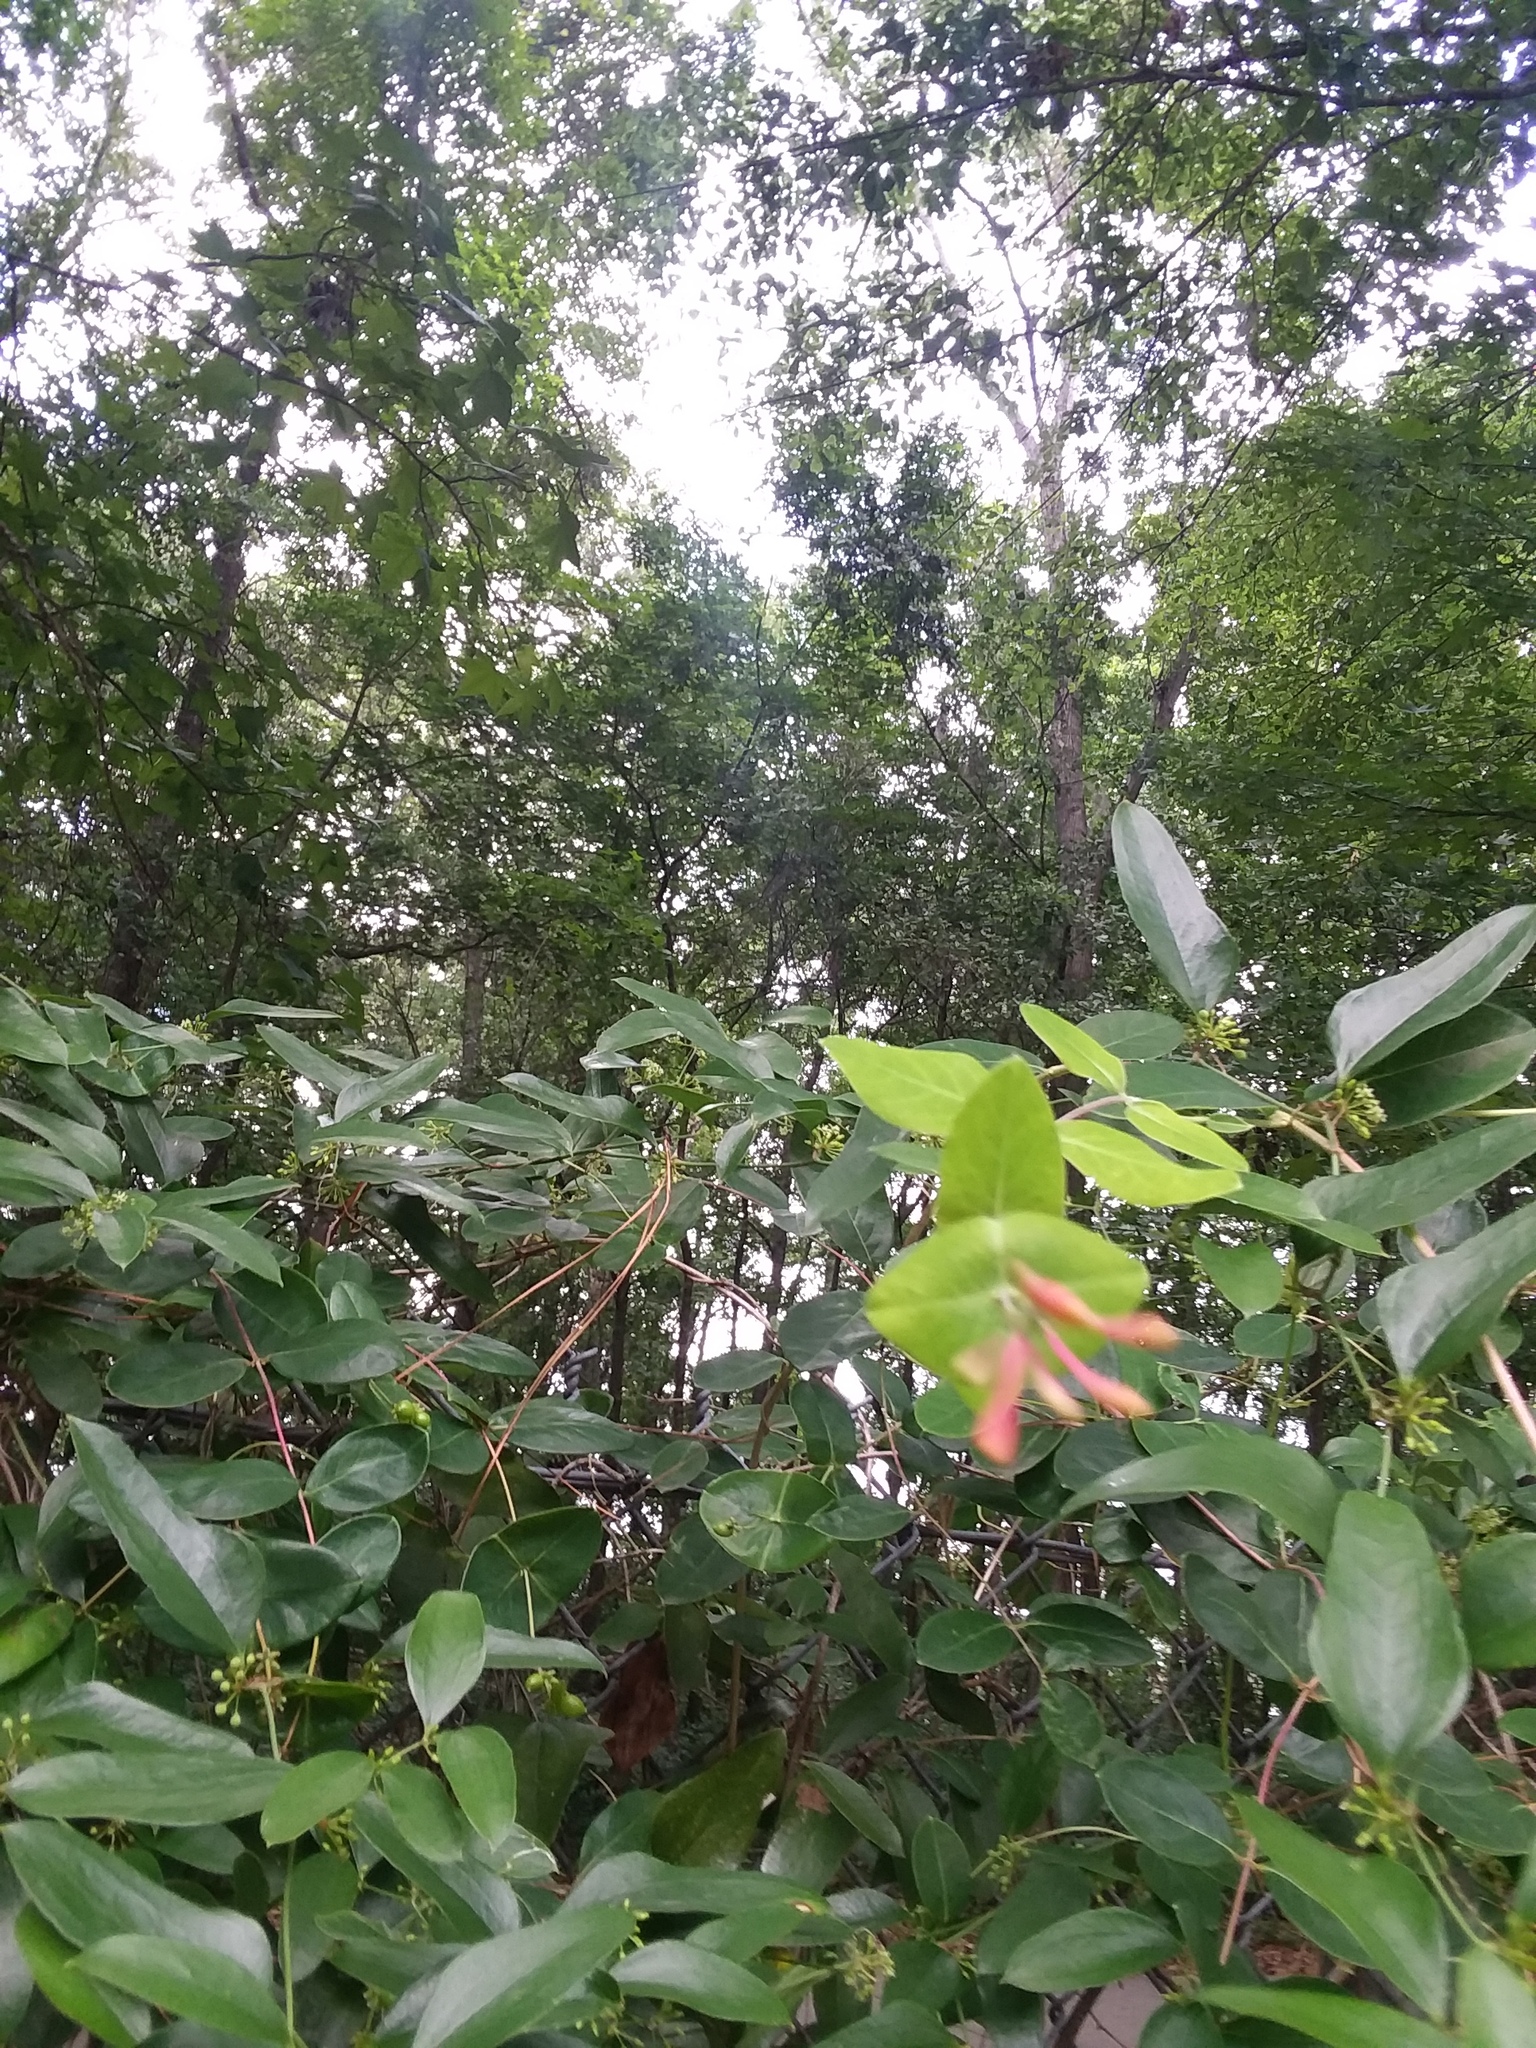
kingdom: Plantae
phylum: Tracheophyta
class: Magnoliopsida
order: Dipsacales
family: Caprifoliaceae
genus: Lonicera
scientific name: Lonicera sempervirens
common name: Coral honeysuckle
